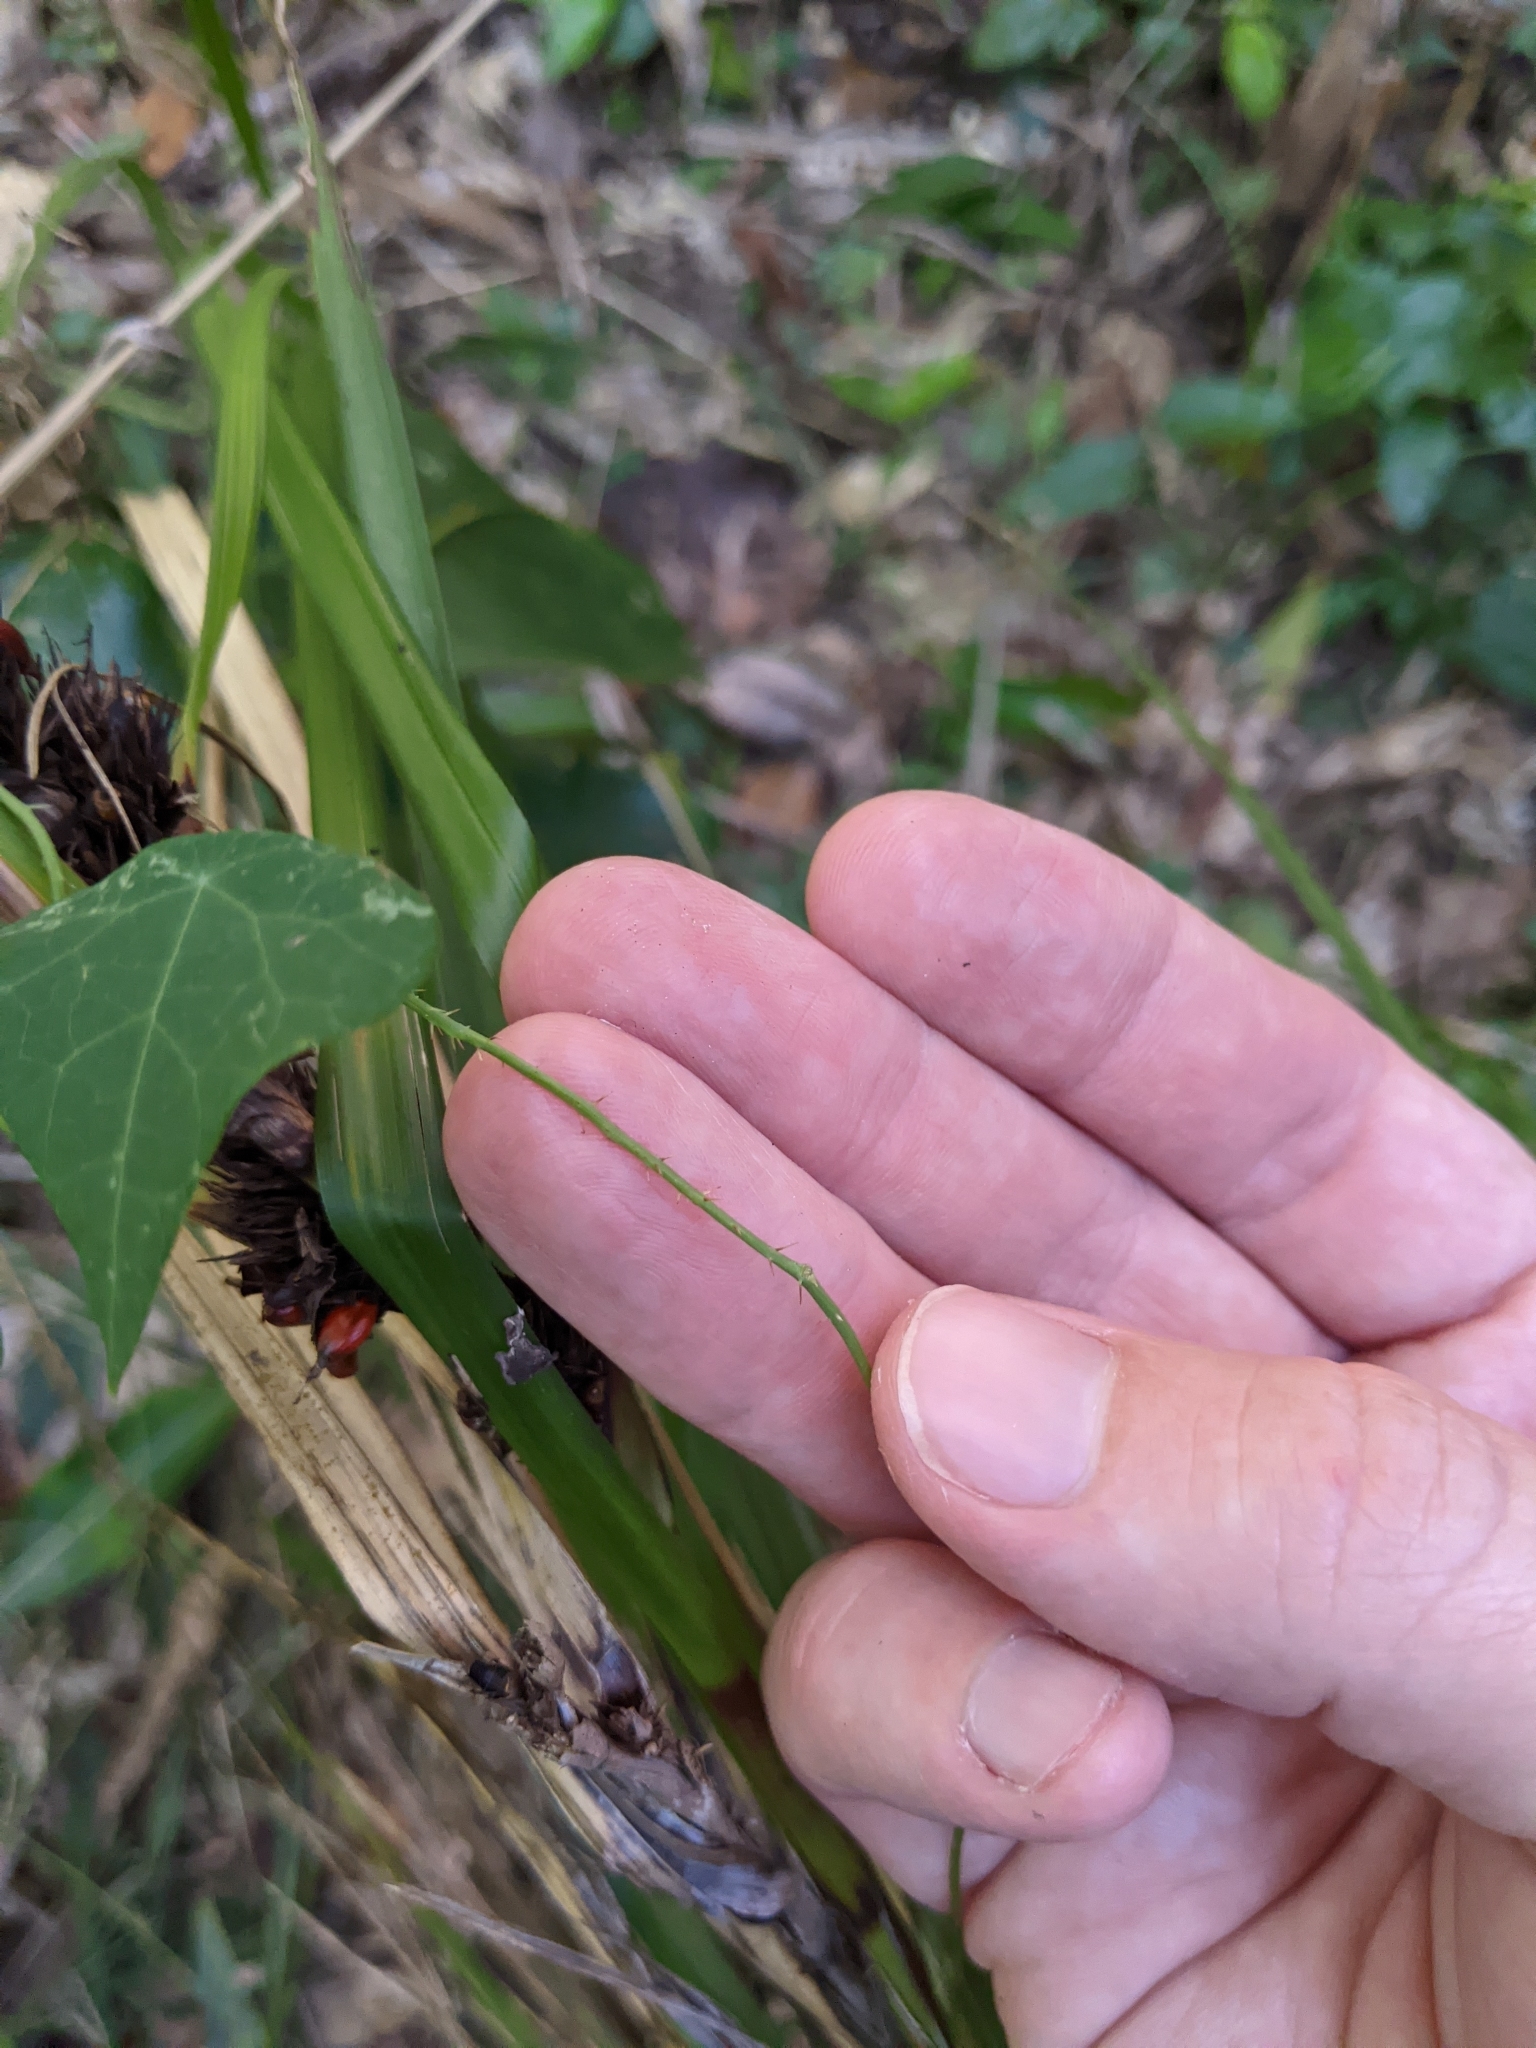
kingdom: Plantae
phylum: Tracheophyta
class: Magnoliopsida
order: Ranunculales
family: Menispermaceae
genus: Stephania
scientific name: Stephania aculeata
